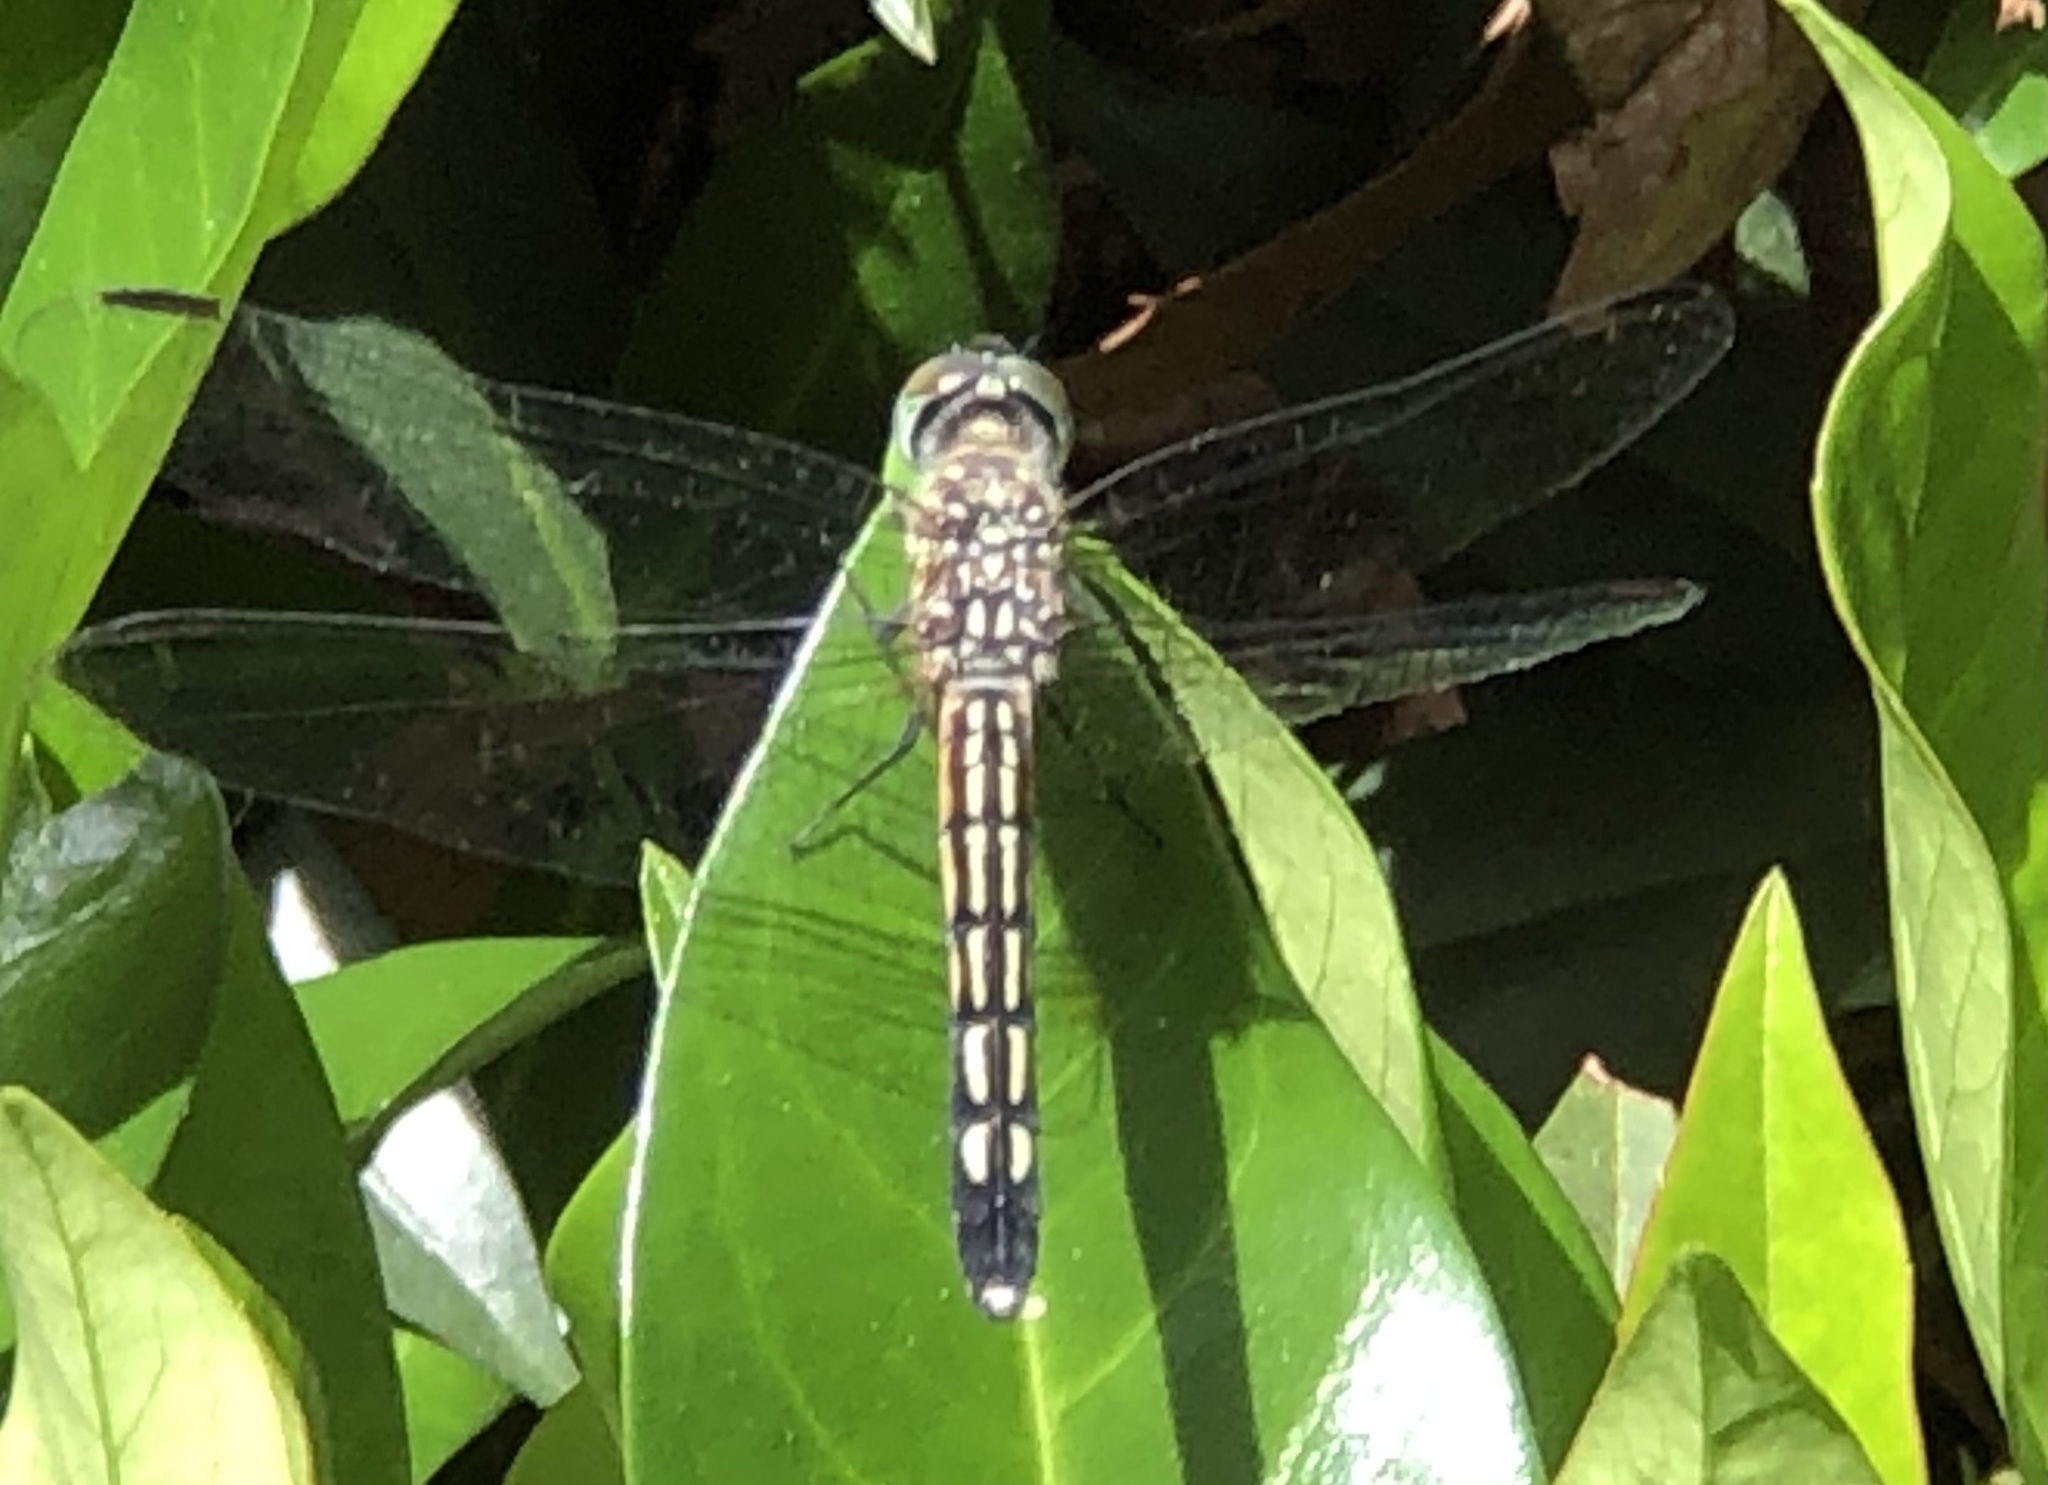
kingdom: Animalia
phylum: Arthropoda
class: Insecta
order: Odonata
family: Libellulidae
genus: Pachydiplax
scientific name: Pachydiplax longipennis
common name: Blue dasher
